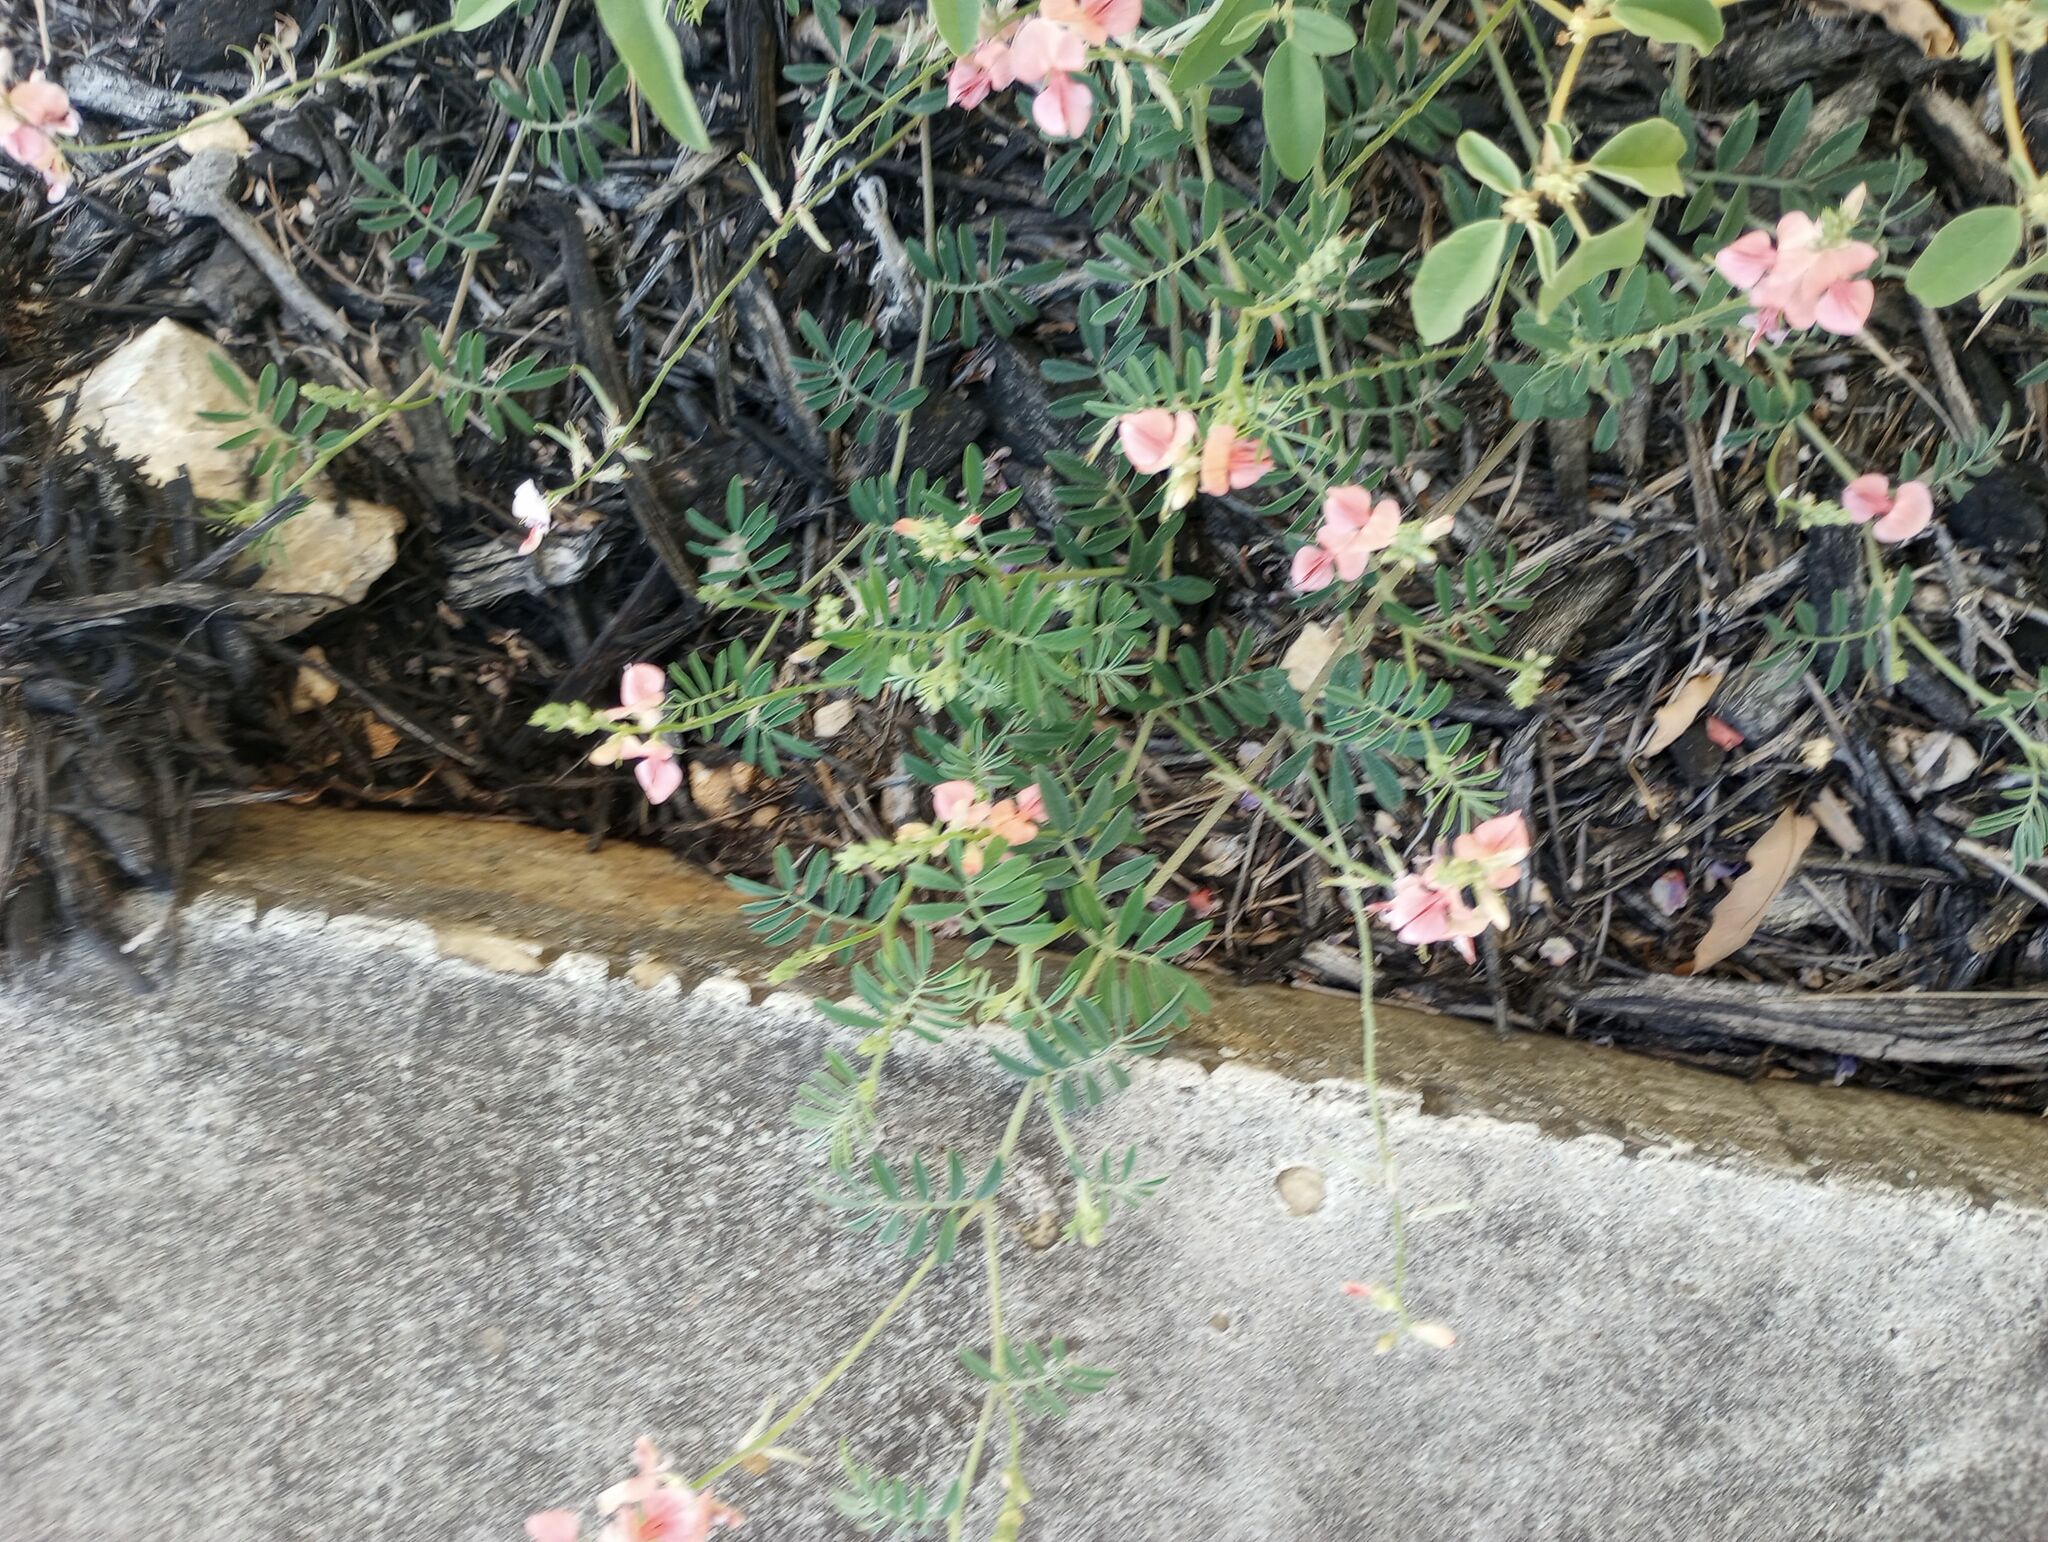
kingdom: Plantae
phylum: Tracheophyta
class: Magnoliopsida
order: Fabales
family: Fabaceae
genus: Indigofera
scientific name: Indigofera miniata
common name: Coast indigo
